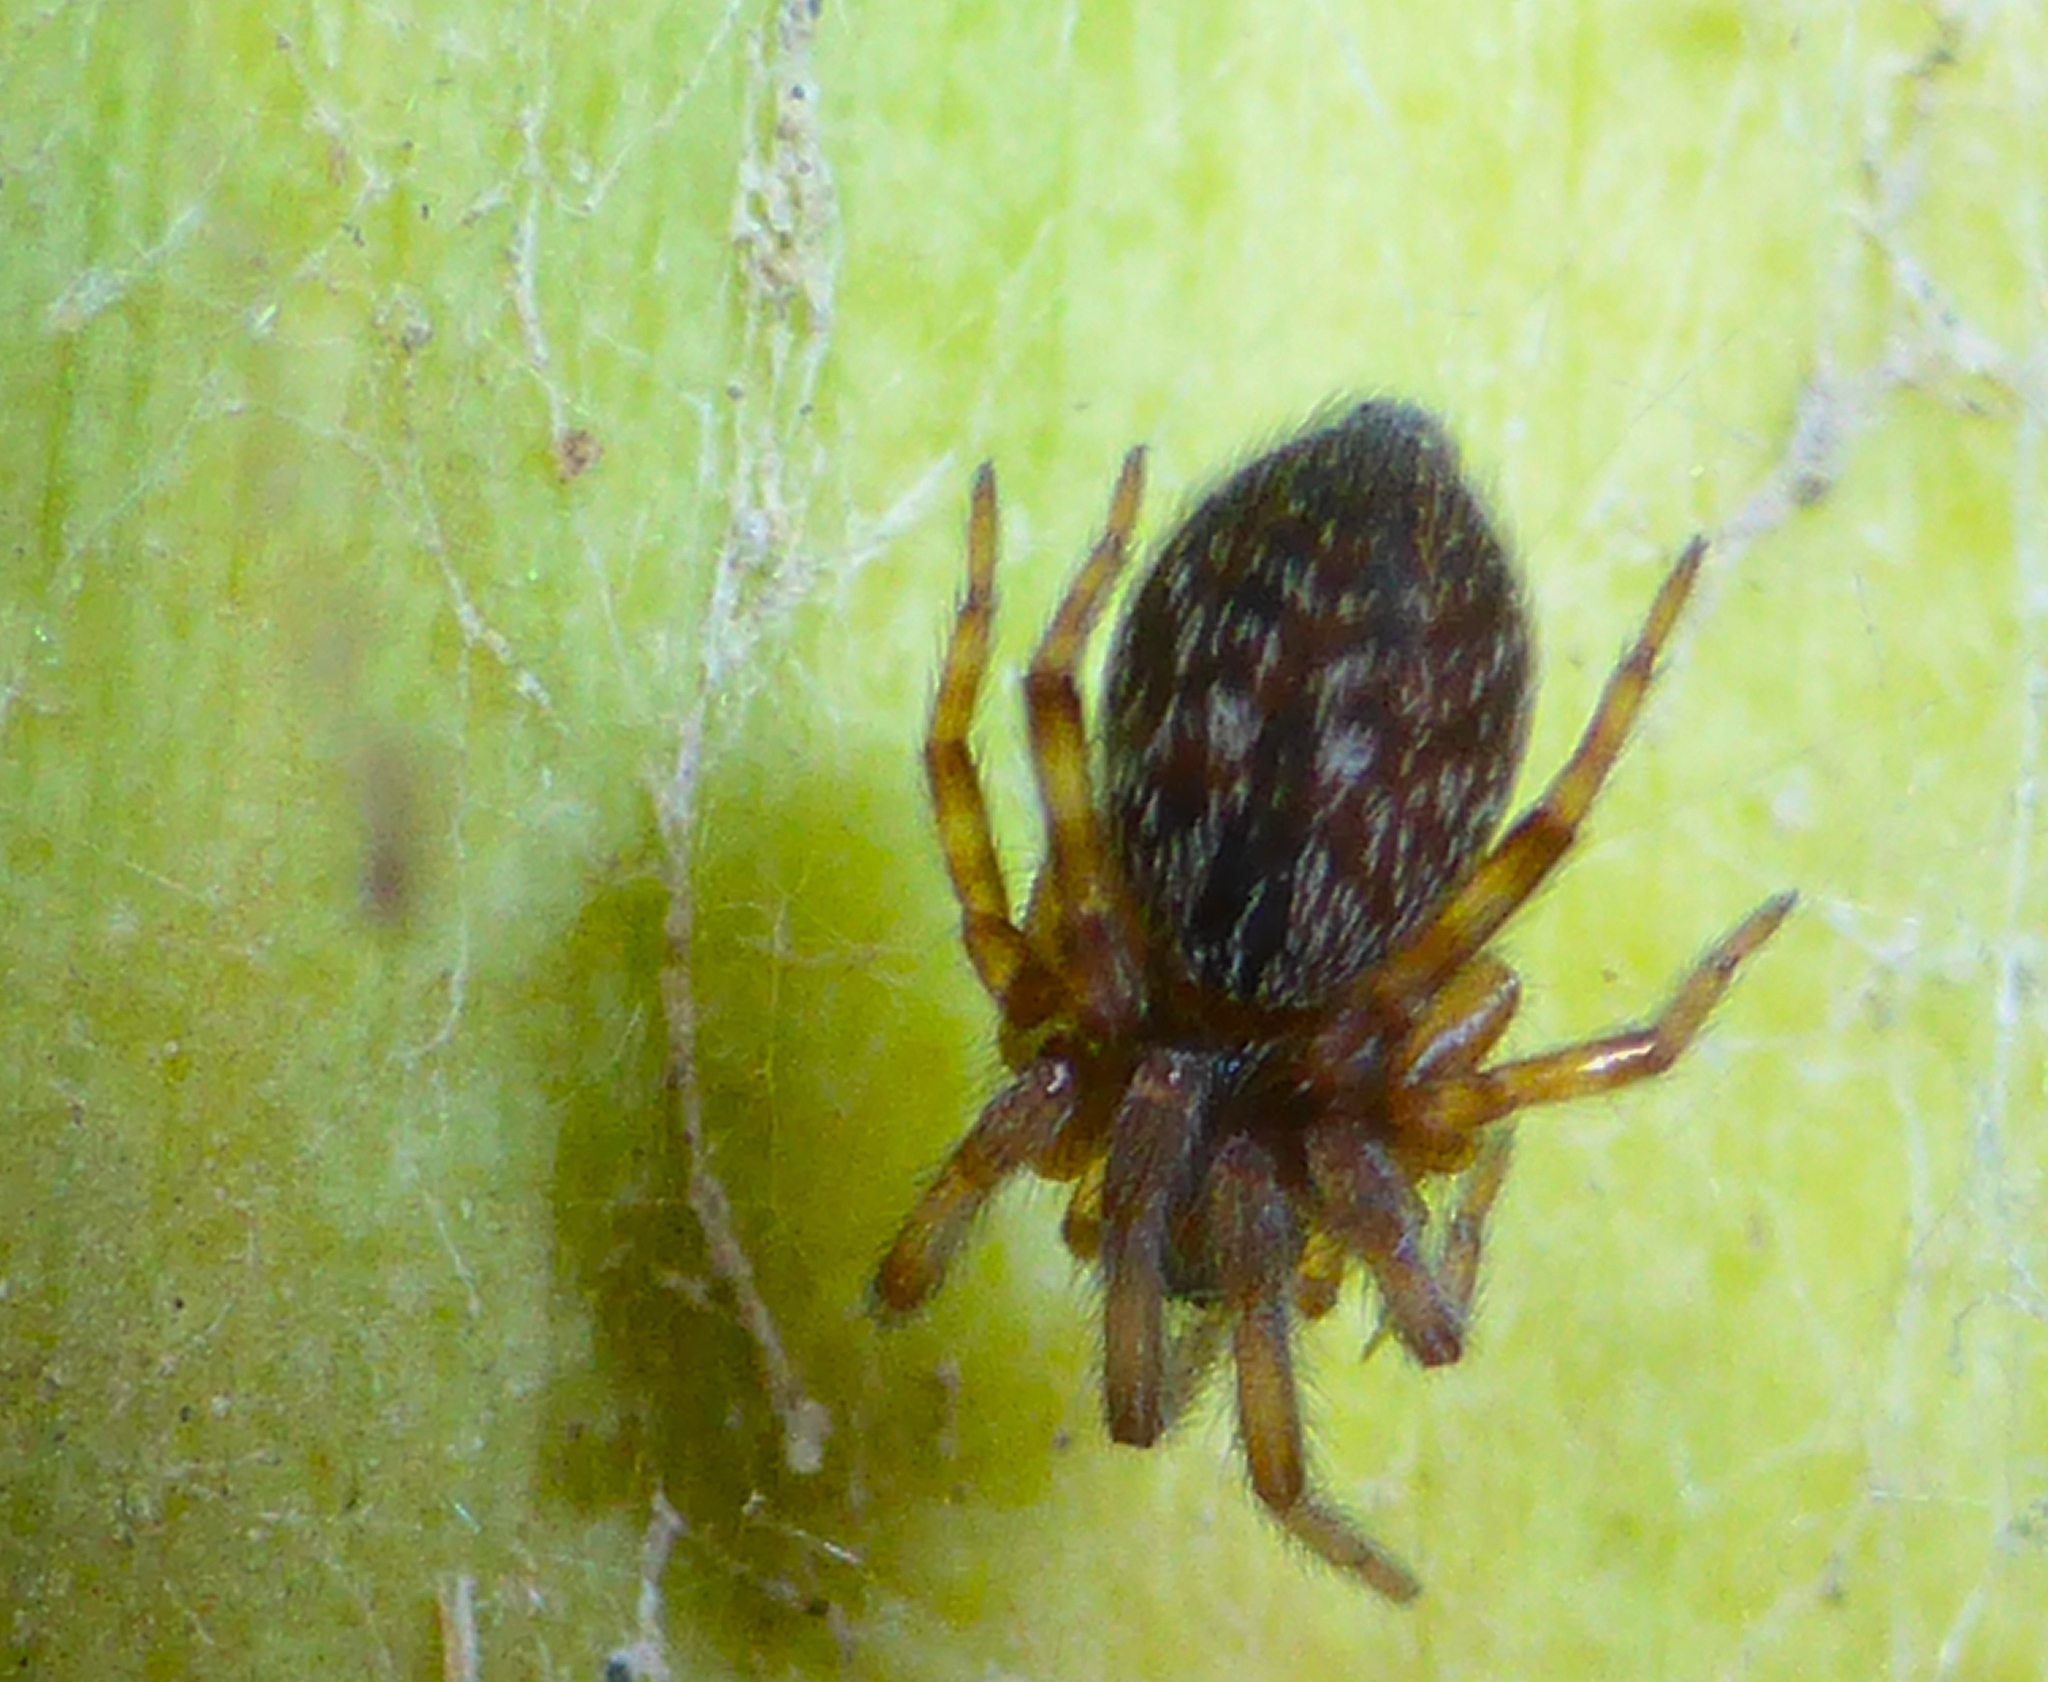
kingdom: Animalia
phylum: Arthropoda
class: Arachnida
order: Araneae
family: Desidae
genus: Badumna
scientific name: Badumna longinqua
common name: Gray house spider
